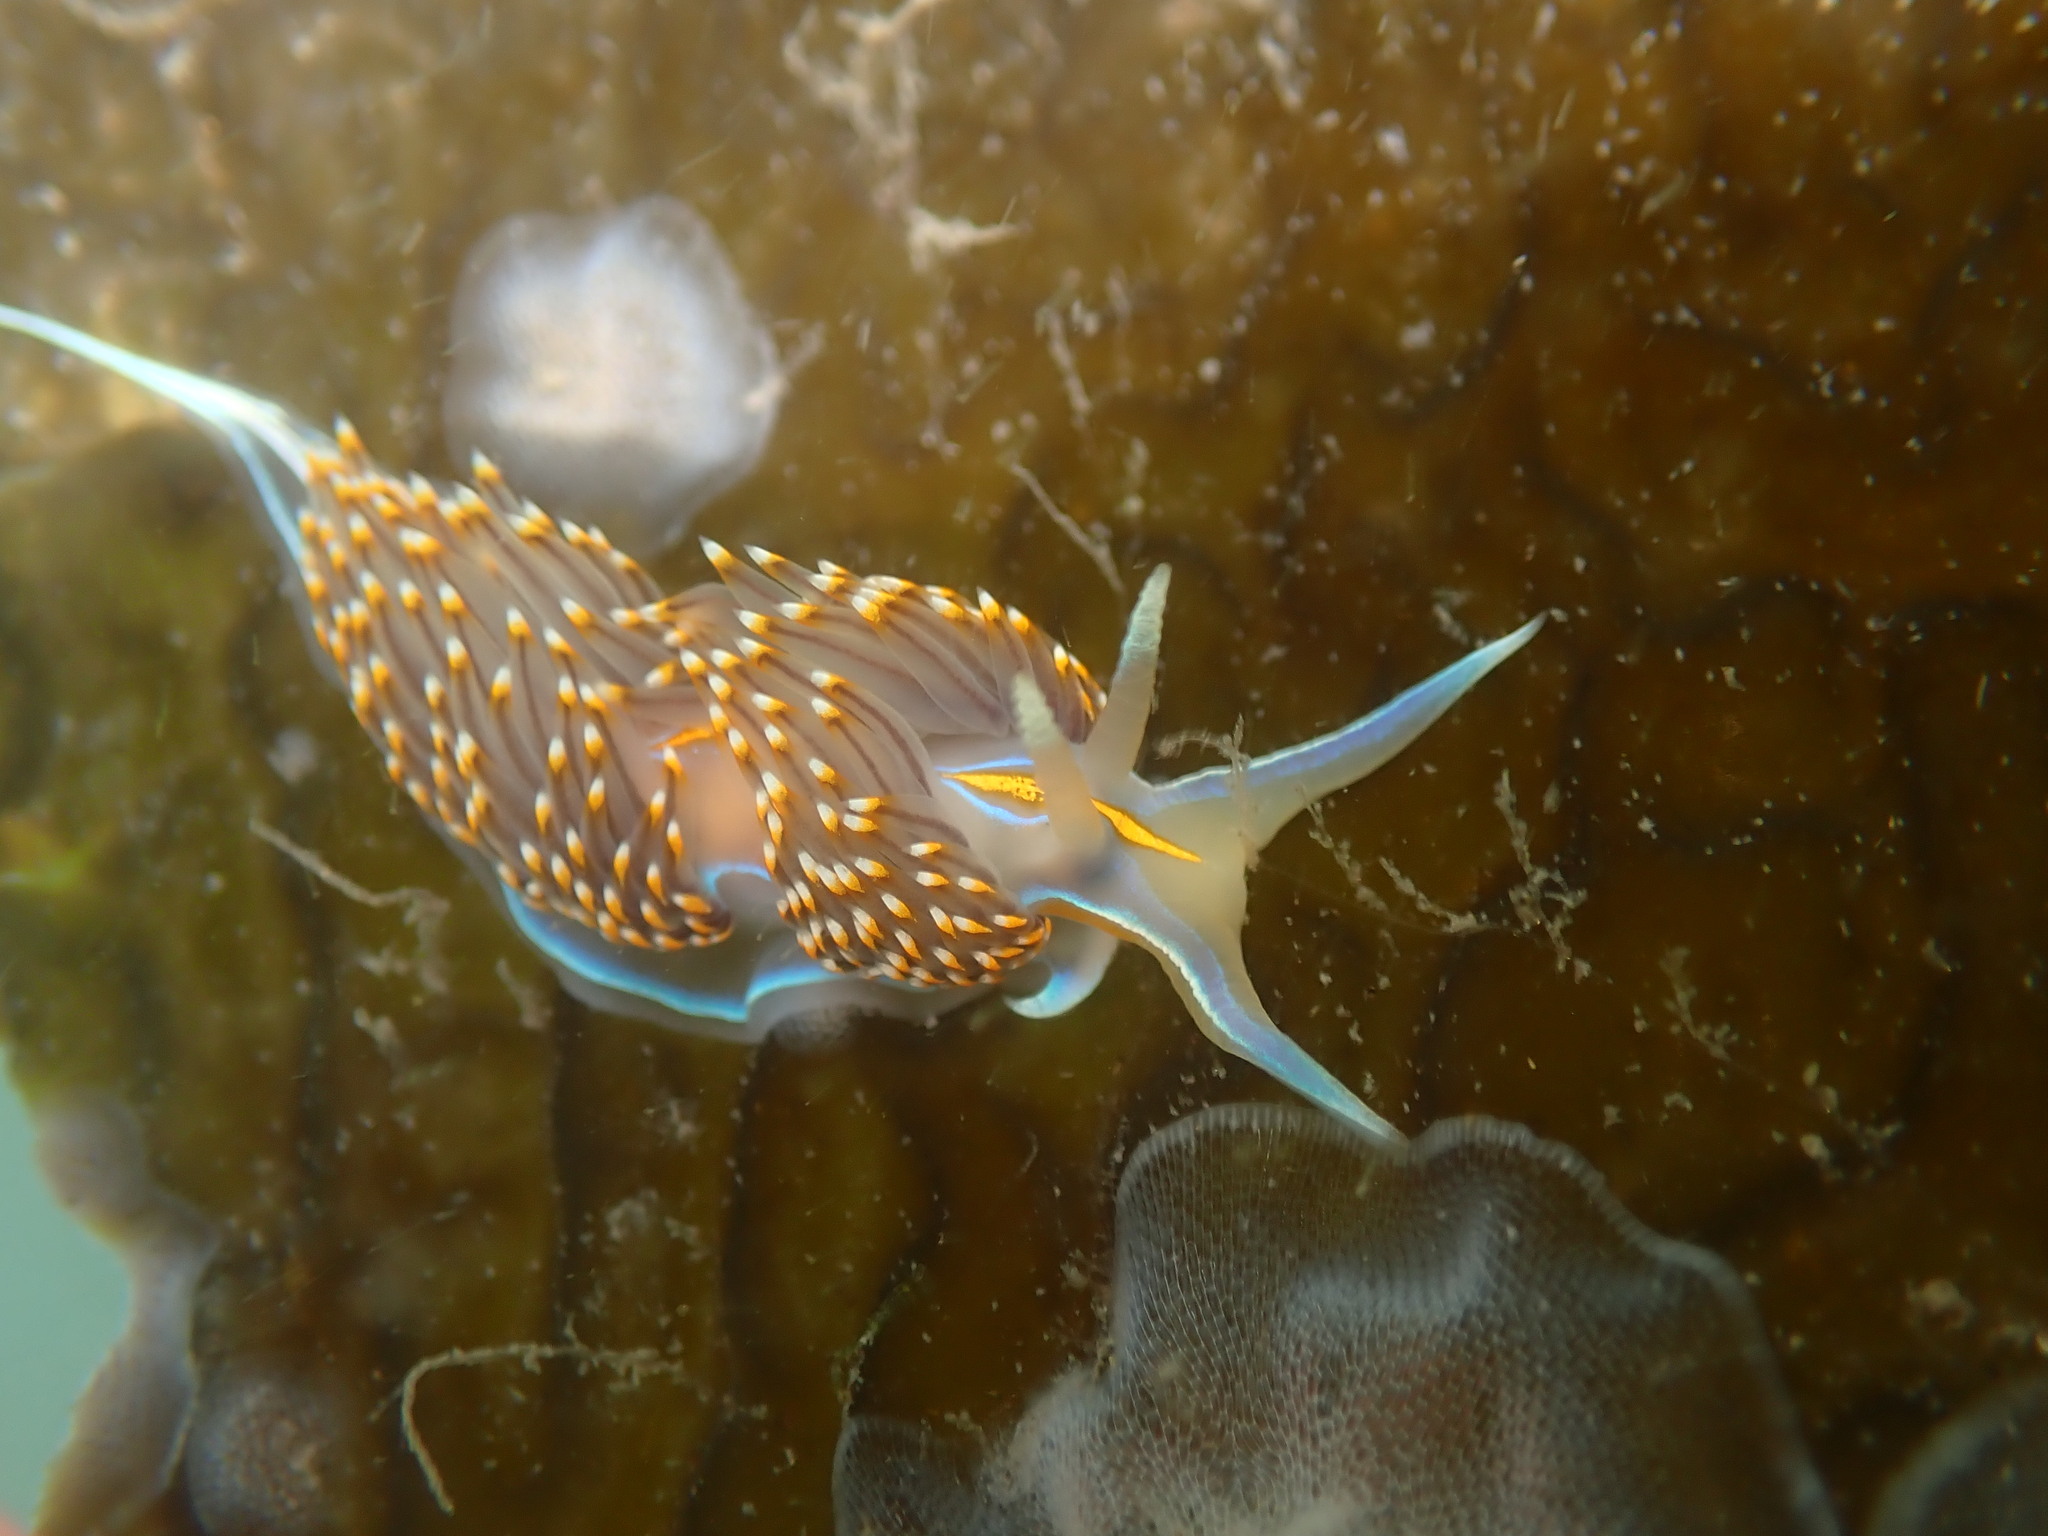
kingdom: Animalia
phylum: Mollusca
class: Gastropoda
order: Nudibranchia
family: Myrrhinidae
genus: Hermissenda
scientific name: Hermissenda opalescens
